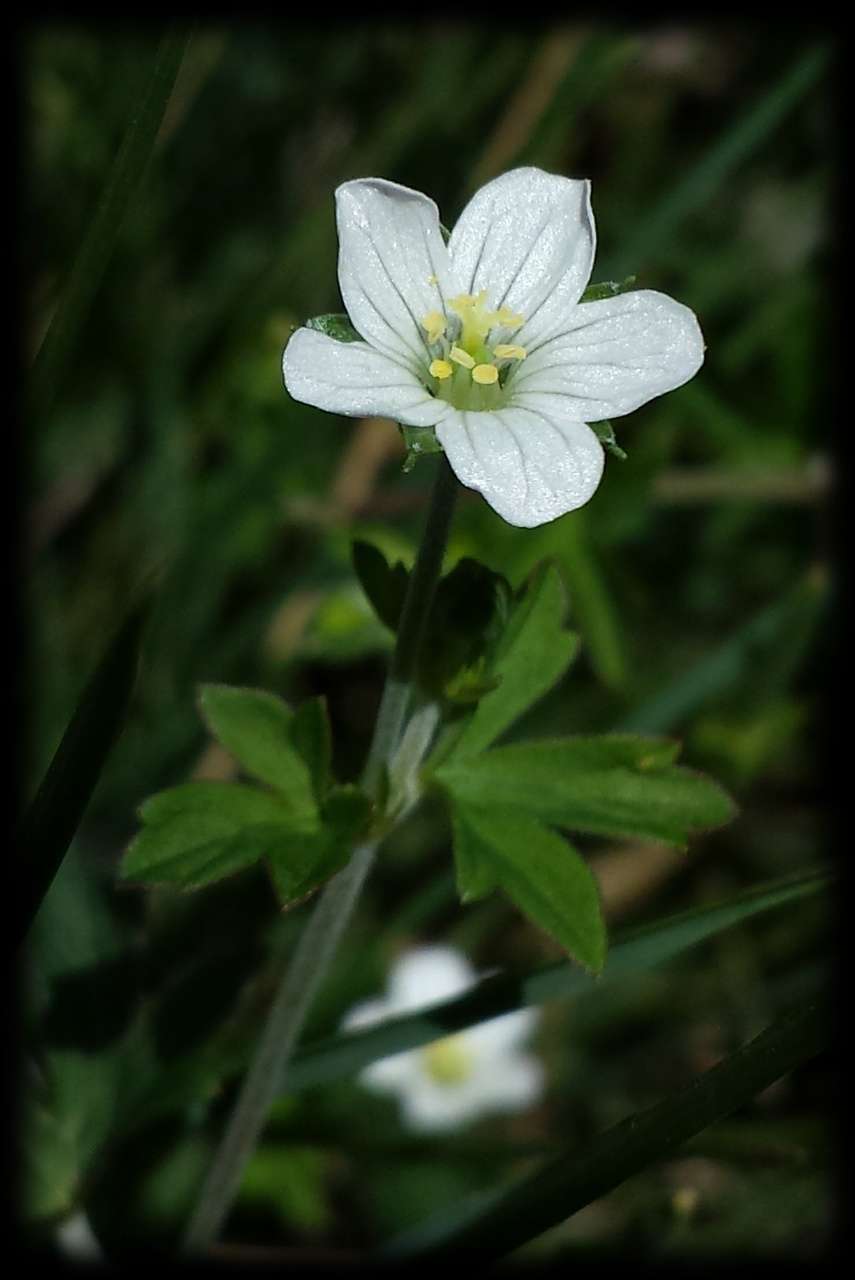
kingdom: Plantae
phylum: Tracheophyta
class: Magnoliopsida
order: Geraniales
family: Geraniaceae
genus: Geranium
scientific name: Geranium potentilloides
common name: Cinquefoil geranium
